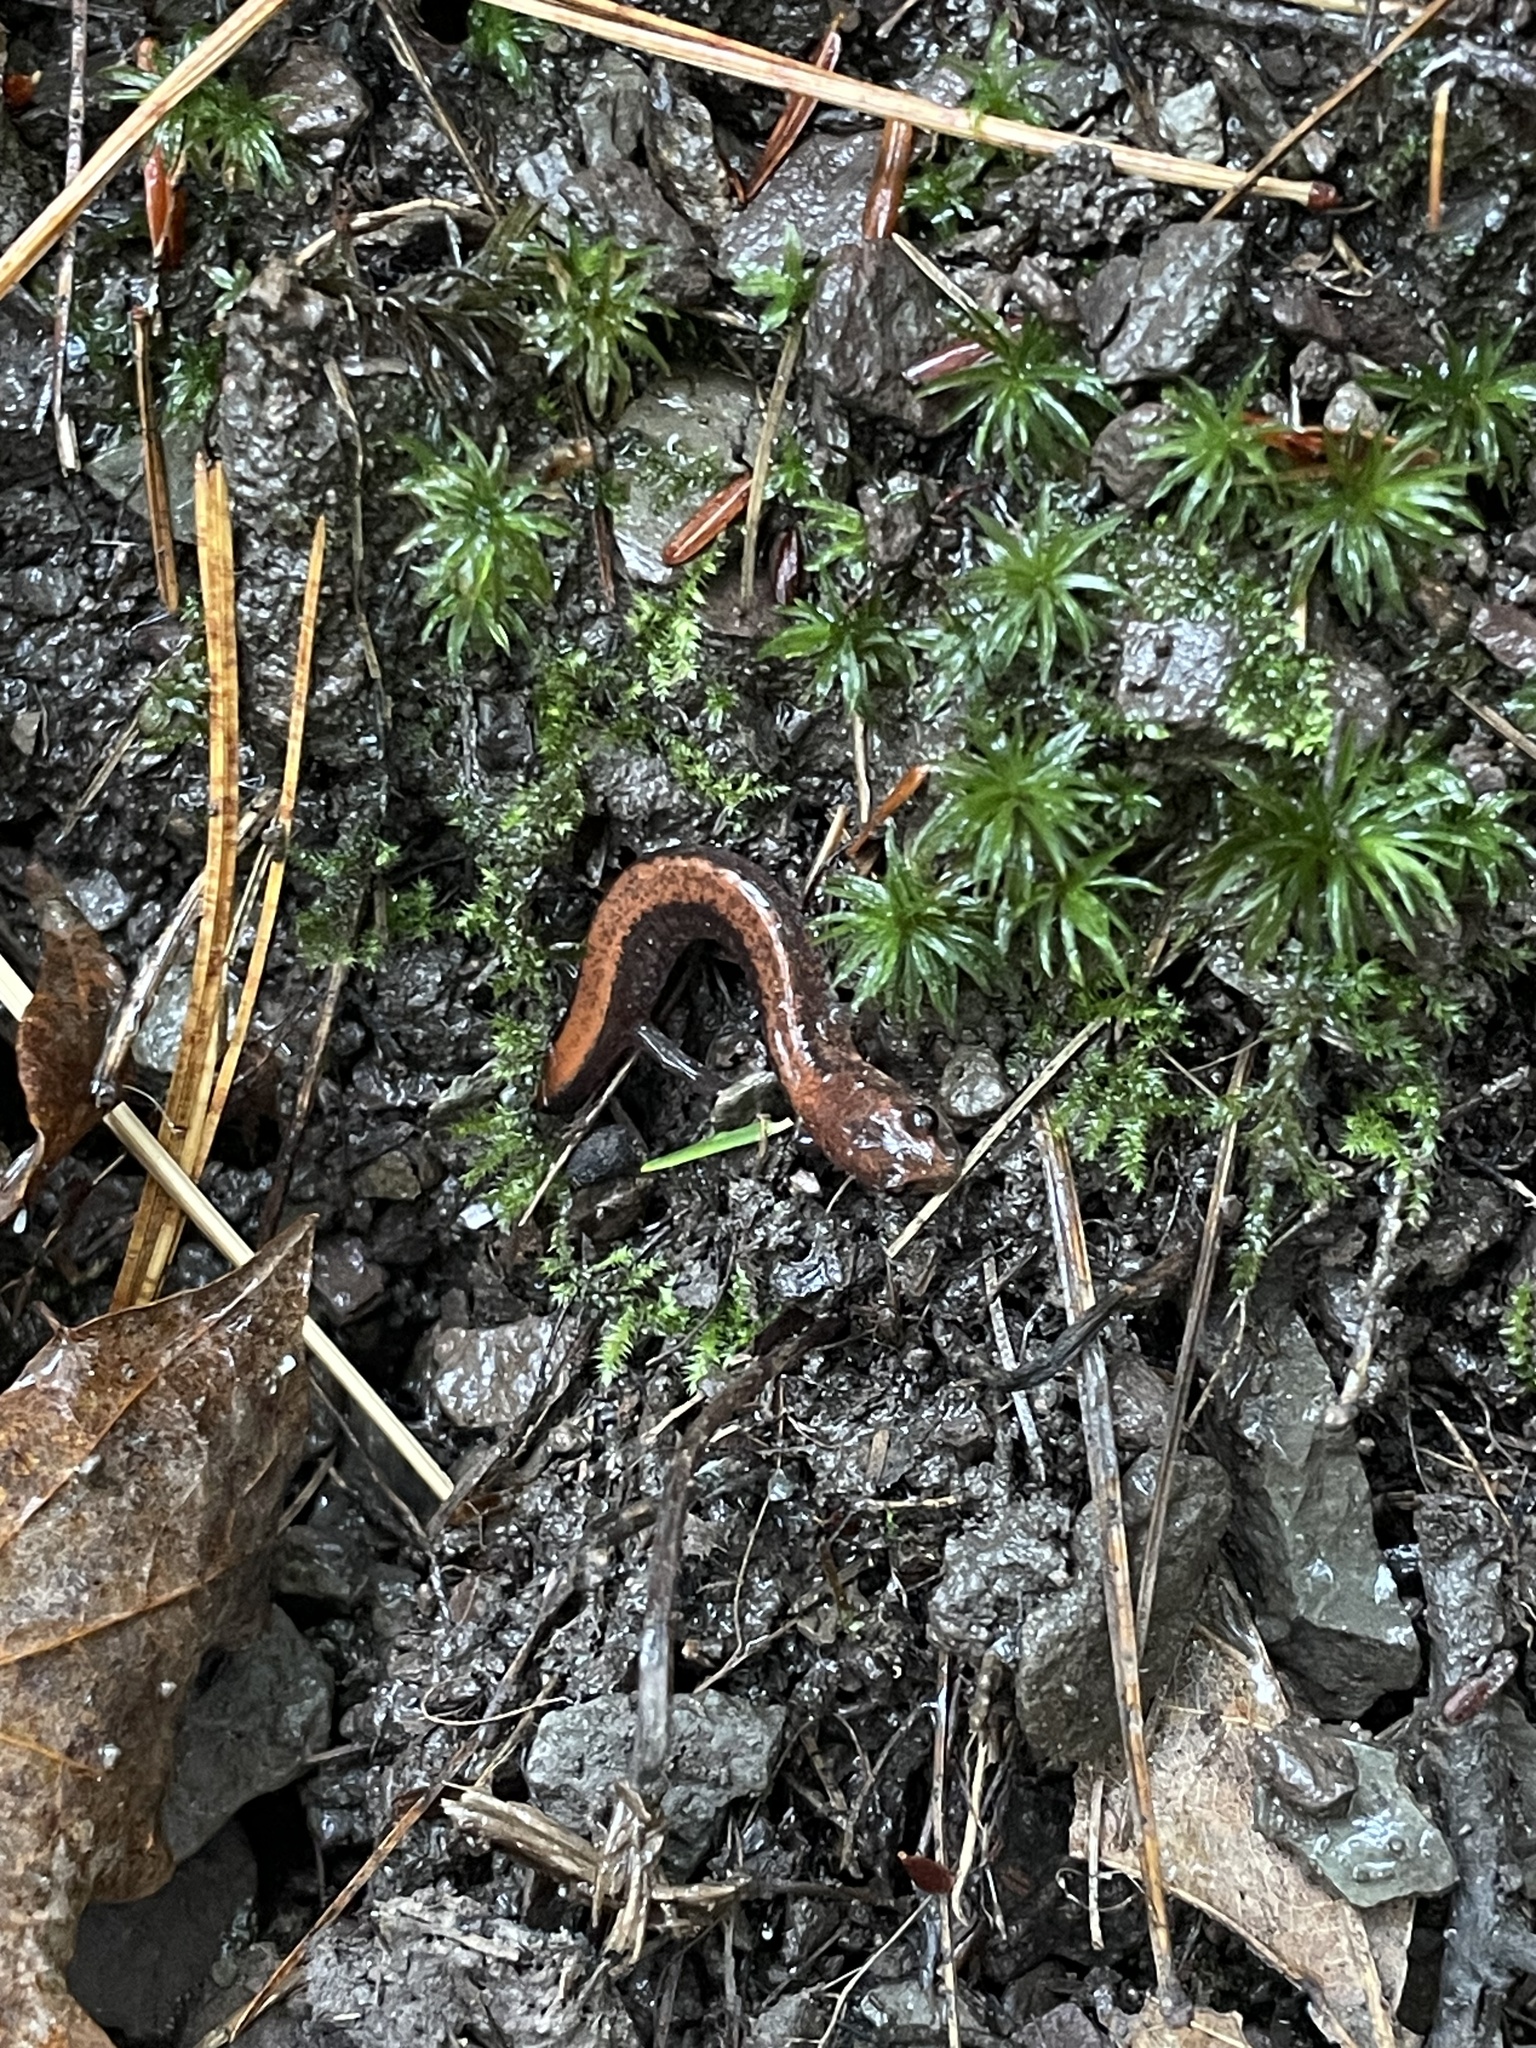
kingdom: Animalia
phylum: Chordata
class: Amphibia
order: Caudata
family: Plethodontidae
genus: Plethodon
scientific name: Plethodon cinereus
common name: Redback salamander
